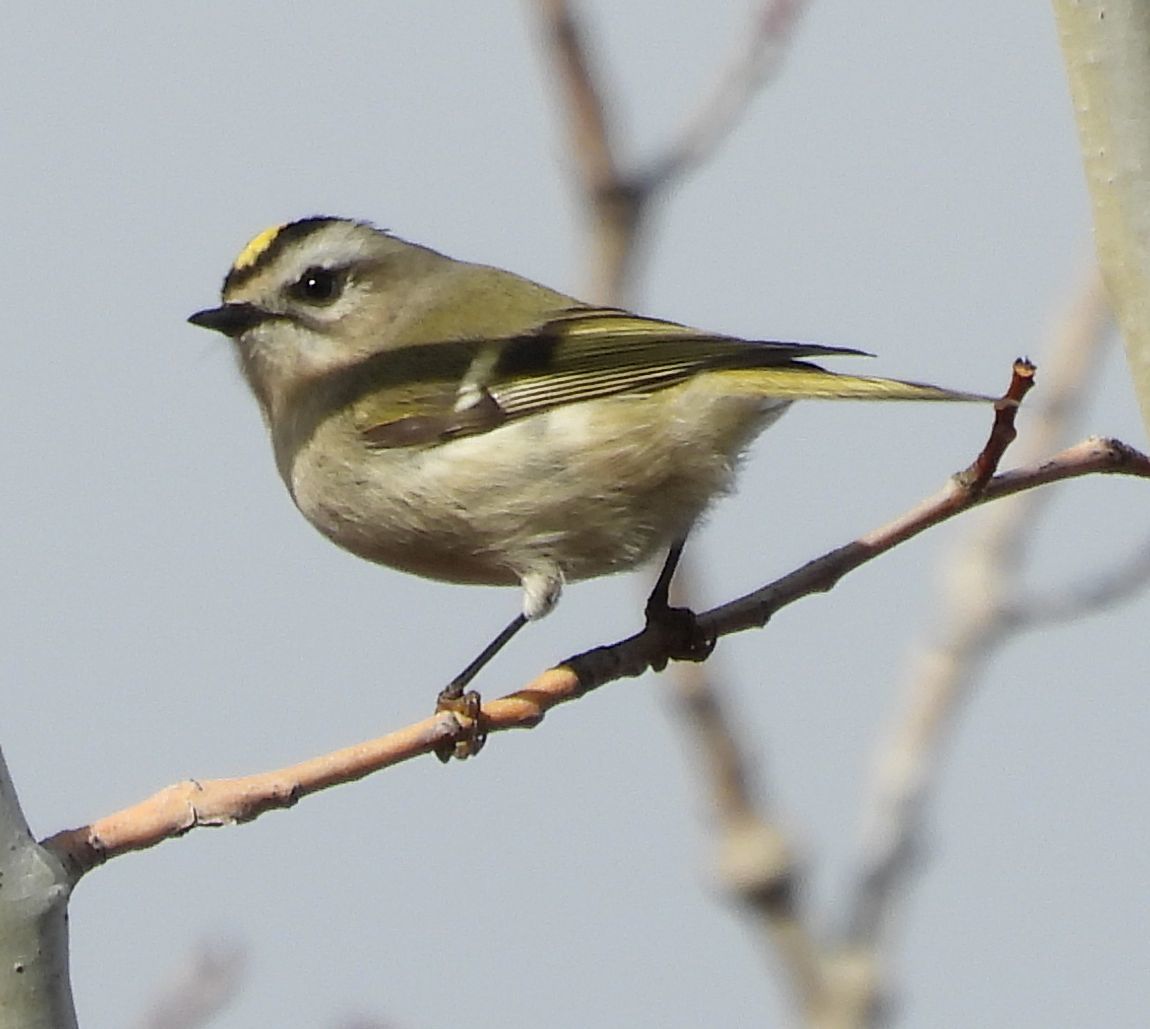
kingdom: Animalia
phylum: Chordata
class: Aves
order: Passeriformes
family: Regulidae
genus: Regulus
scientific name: Regulus satrapa
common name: Golden-crowned kinglet
